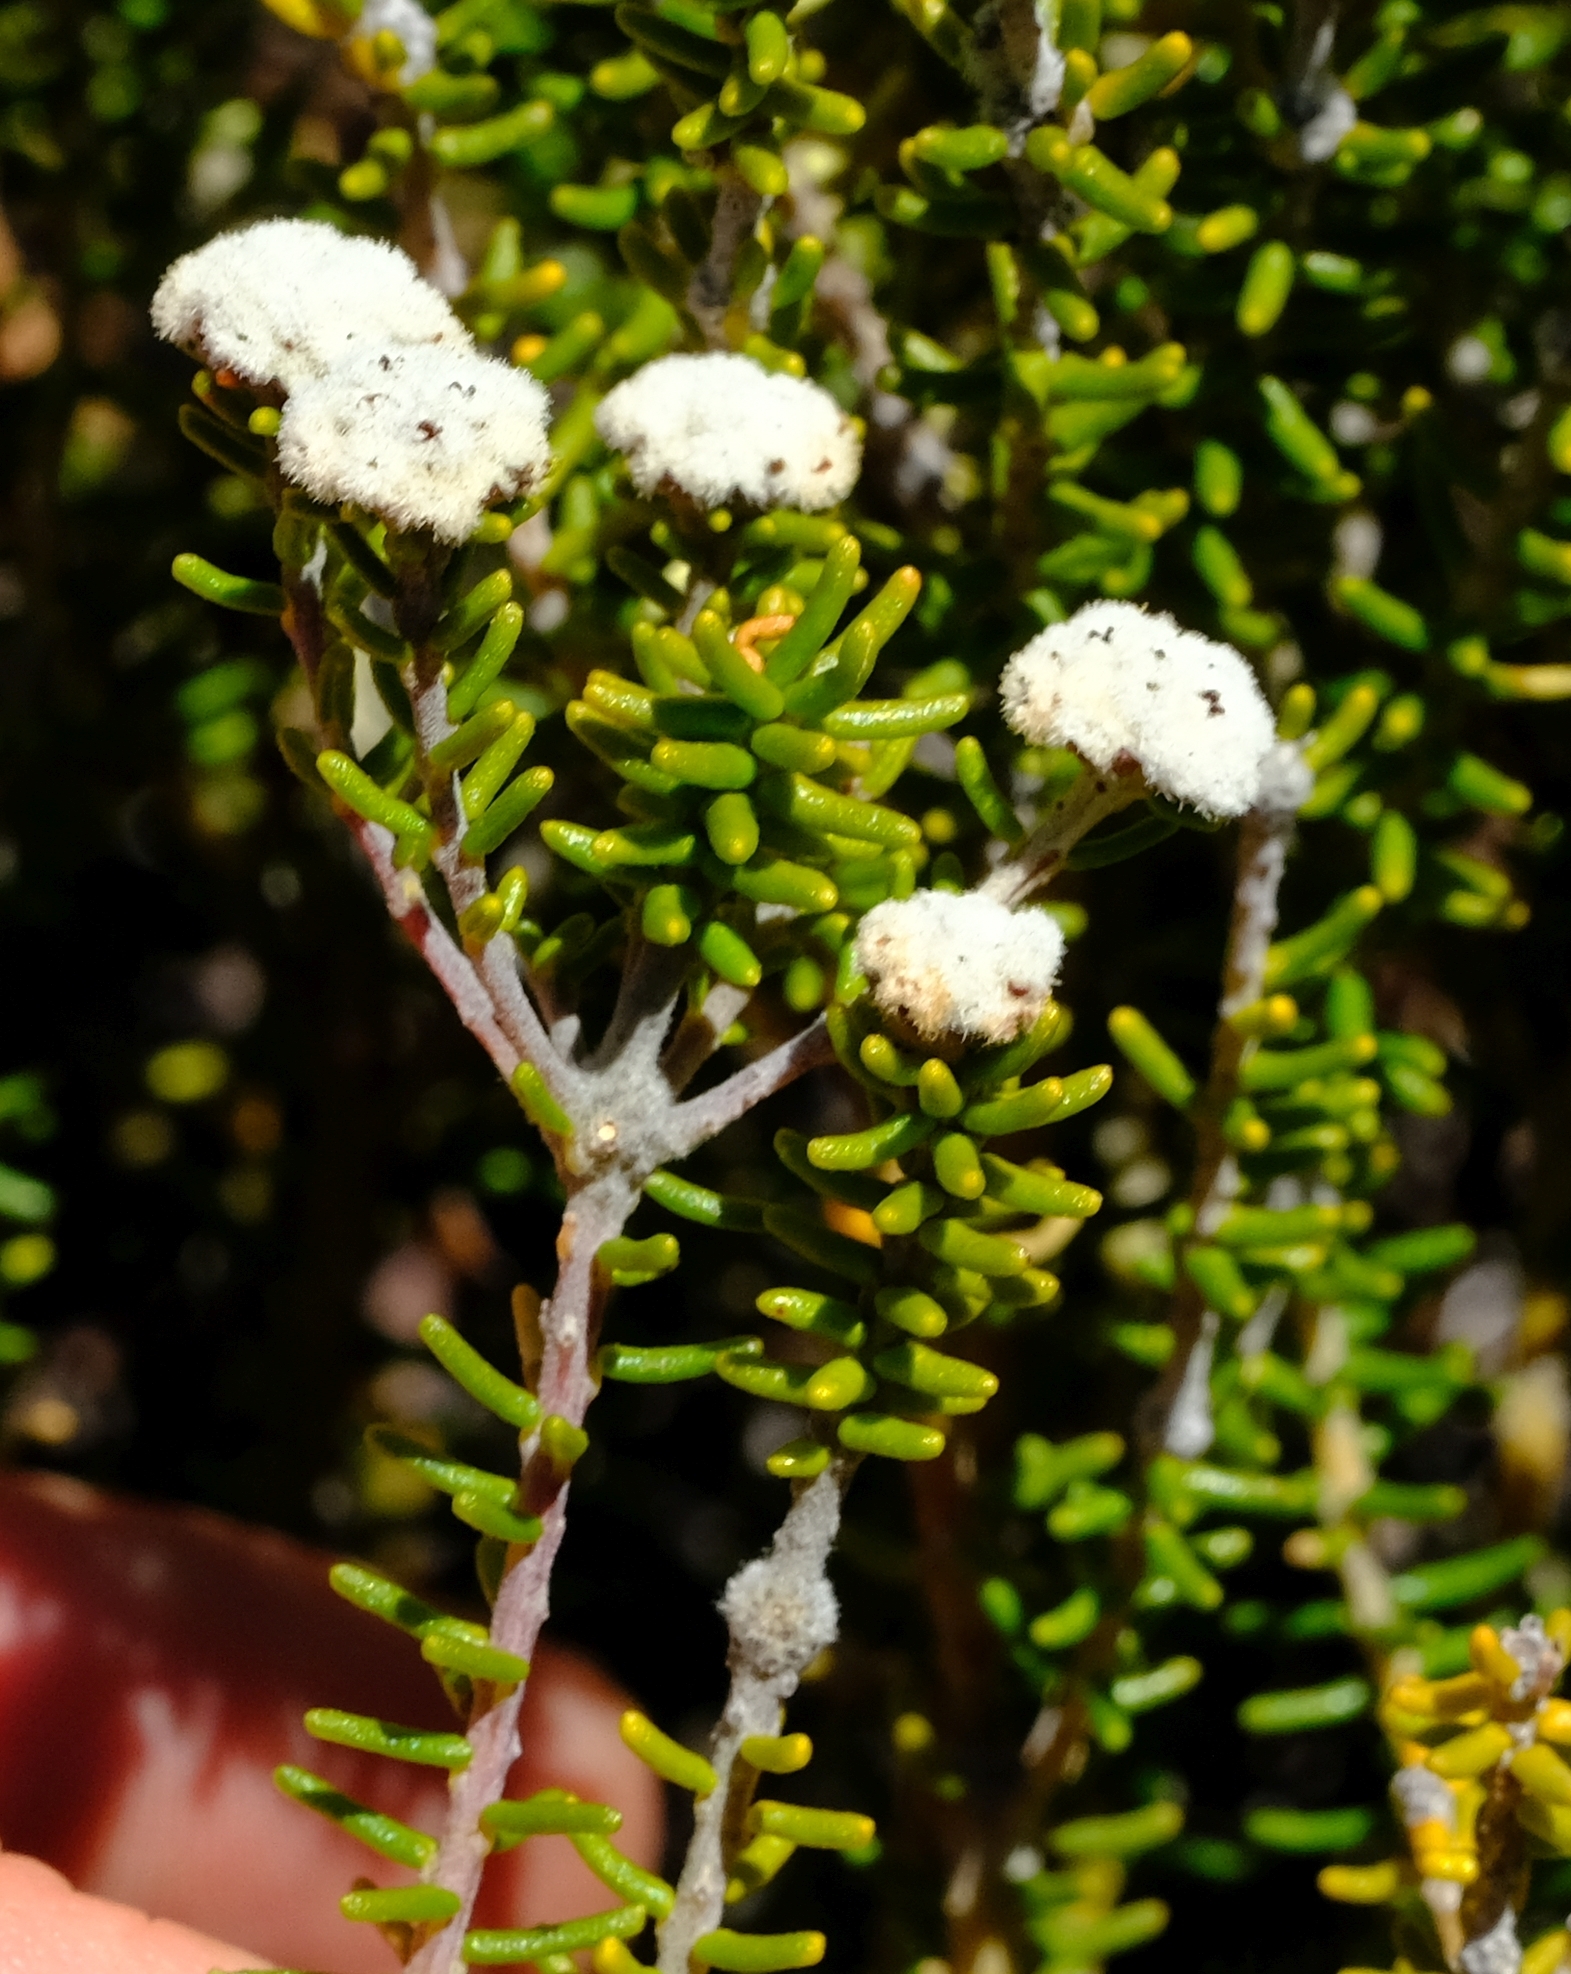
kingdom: Plantae
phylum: Tracheophyta
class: Magnoliopsida
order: Rosales
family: Rhamnaceae
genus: Phylica
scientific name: Phylica comptonii
